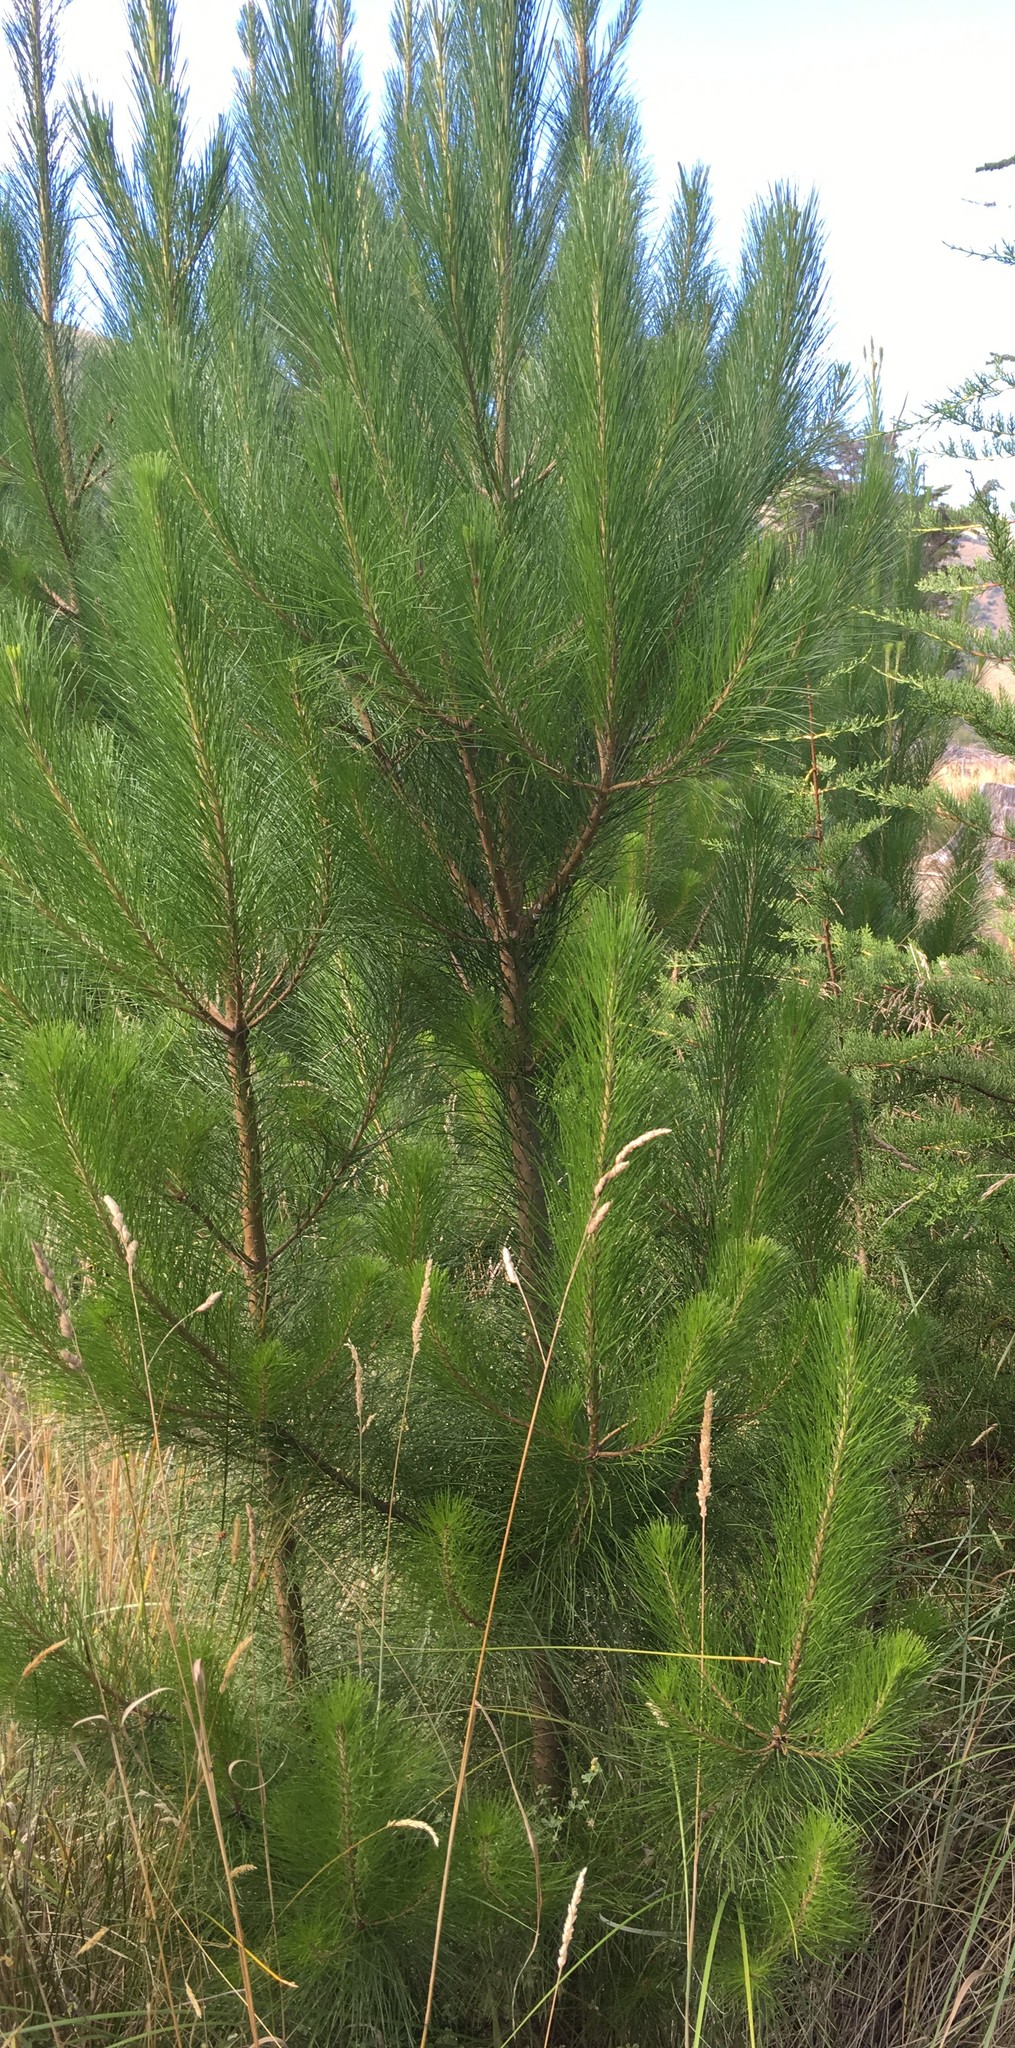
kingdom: Plantae
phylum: Tracheophyta
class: Pinopsida
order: Pinales
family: Pinaceae
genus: Pinus
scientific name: Pinus radiata
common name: Monterey pine
